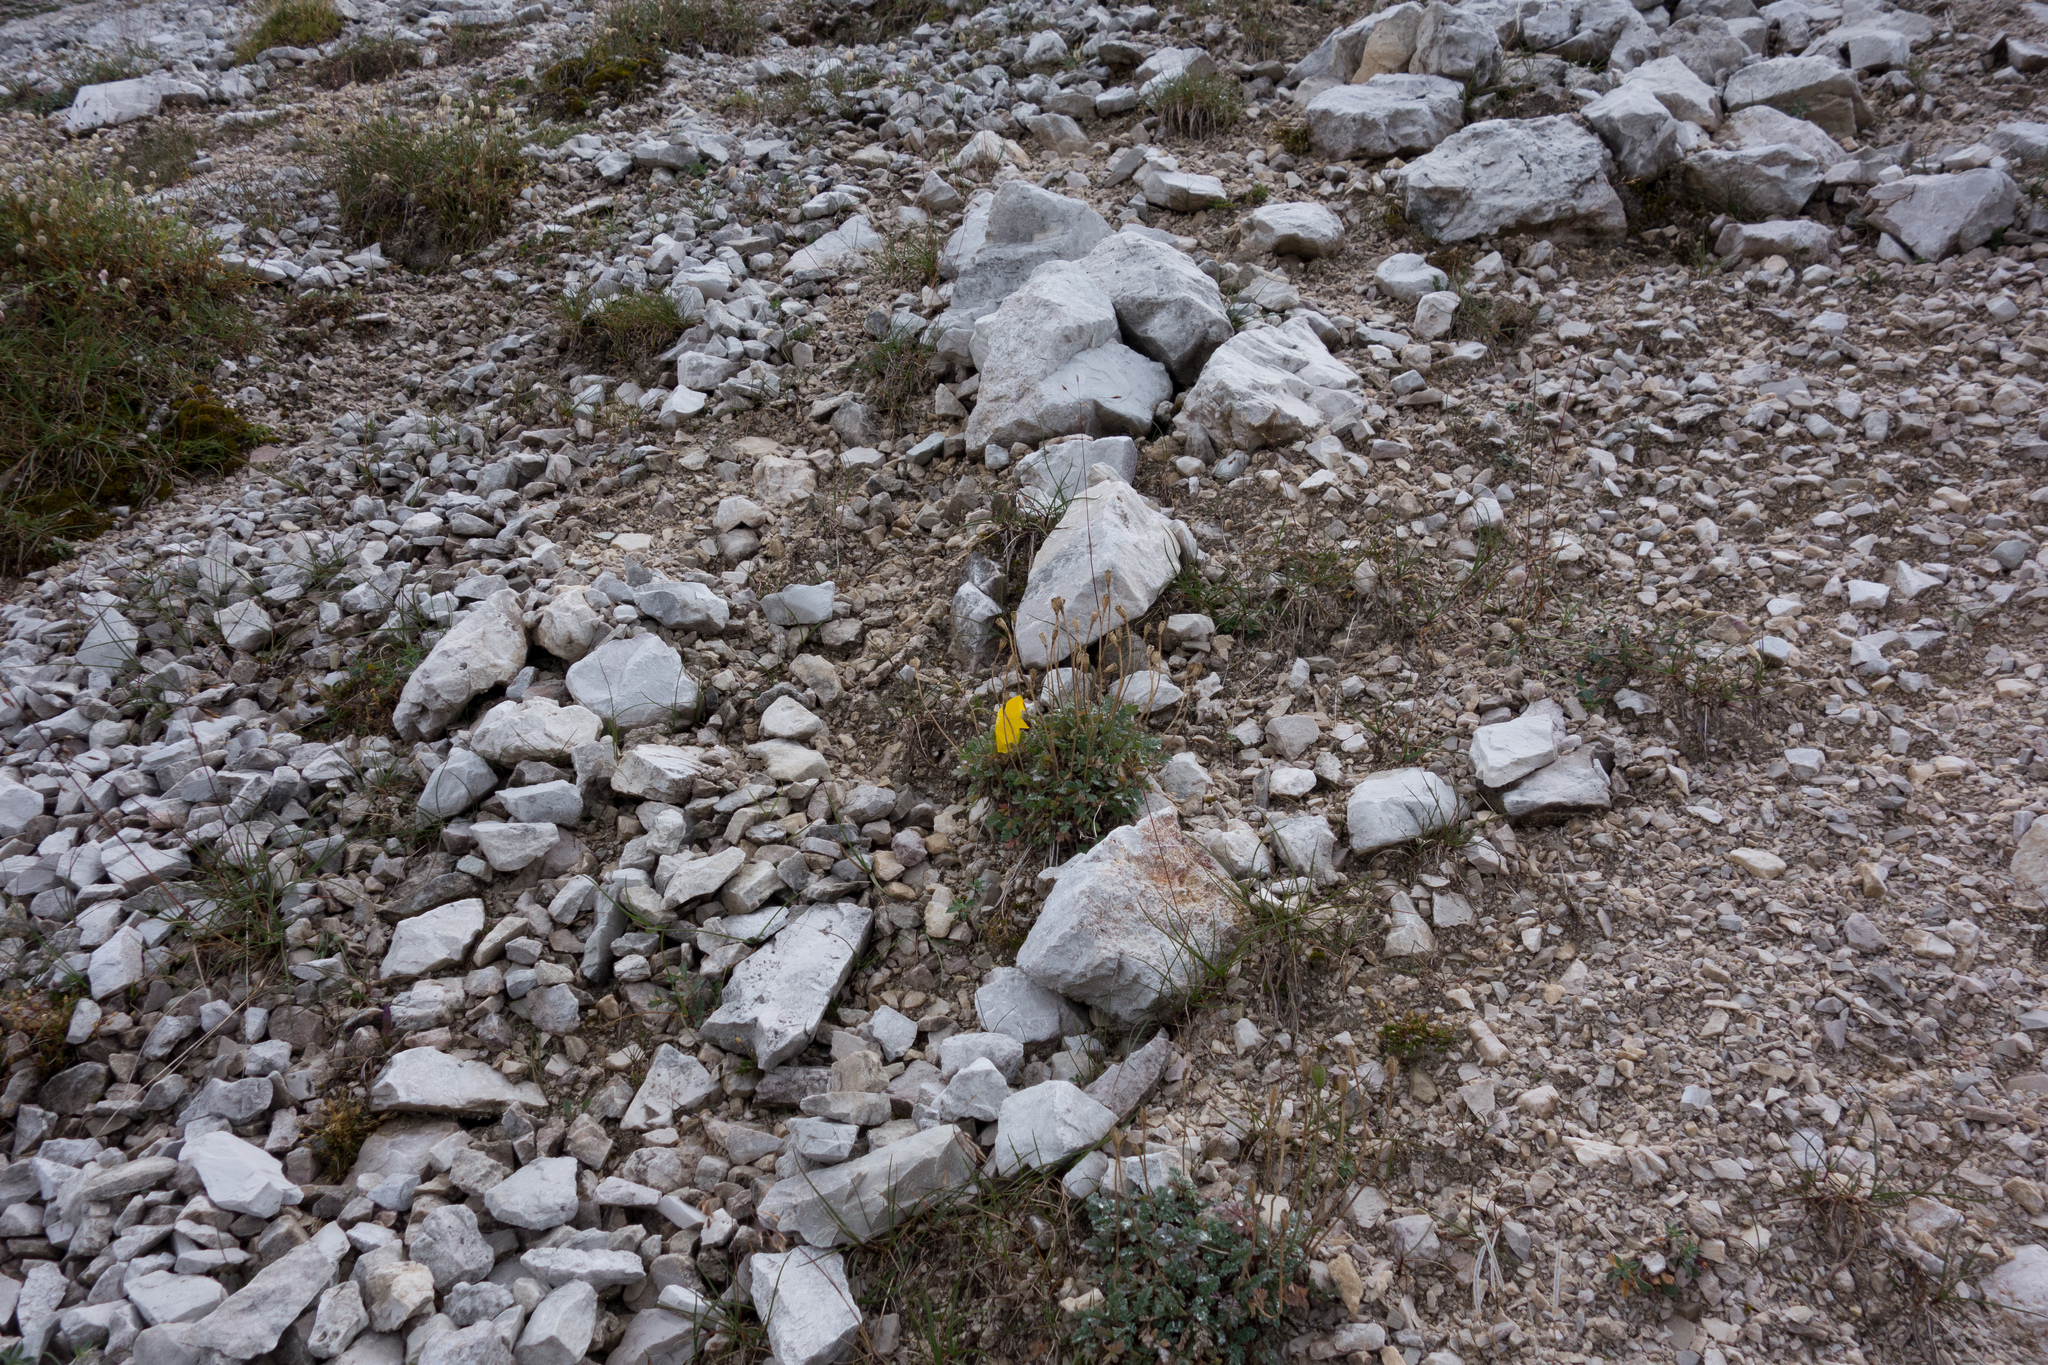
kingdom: Plantae
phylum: Tracheophyta
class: Magnoliopsida
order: Ranunculales
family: Papaveraceae
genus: Papaver
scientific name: Papaver alpinum
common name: Austrian poppy
